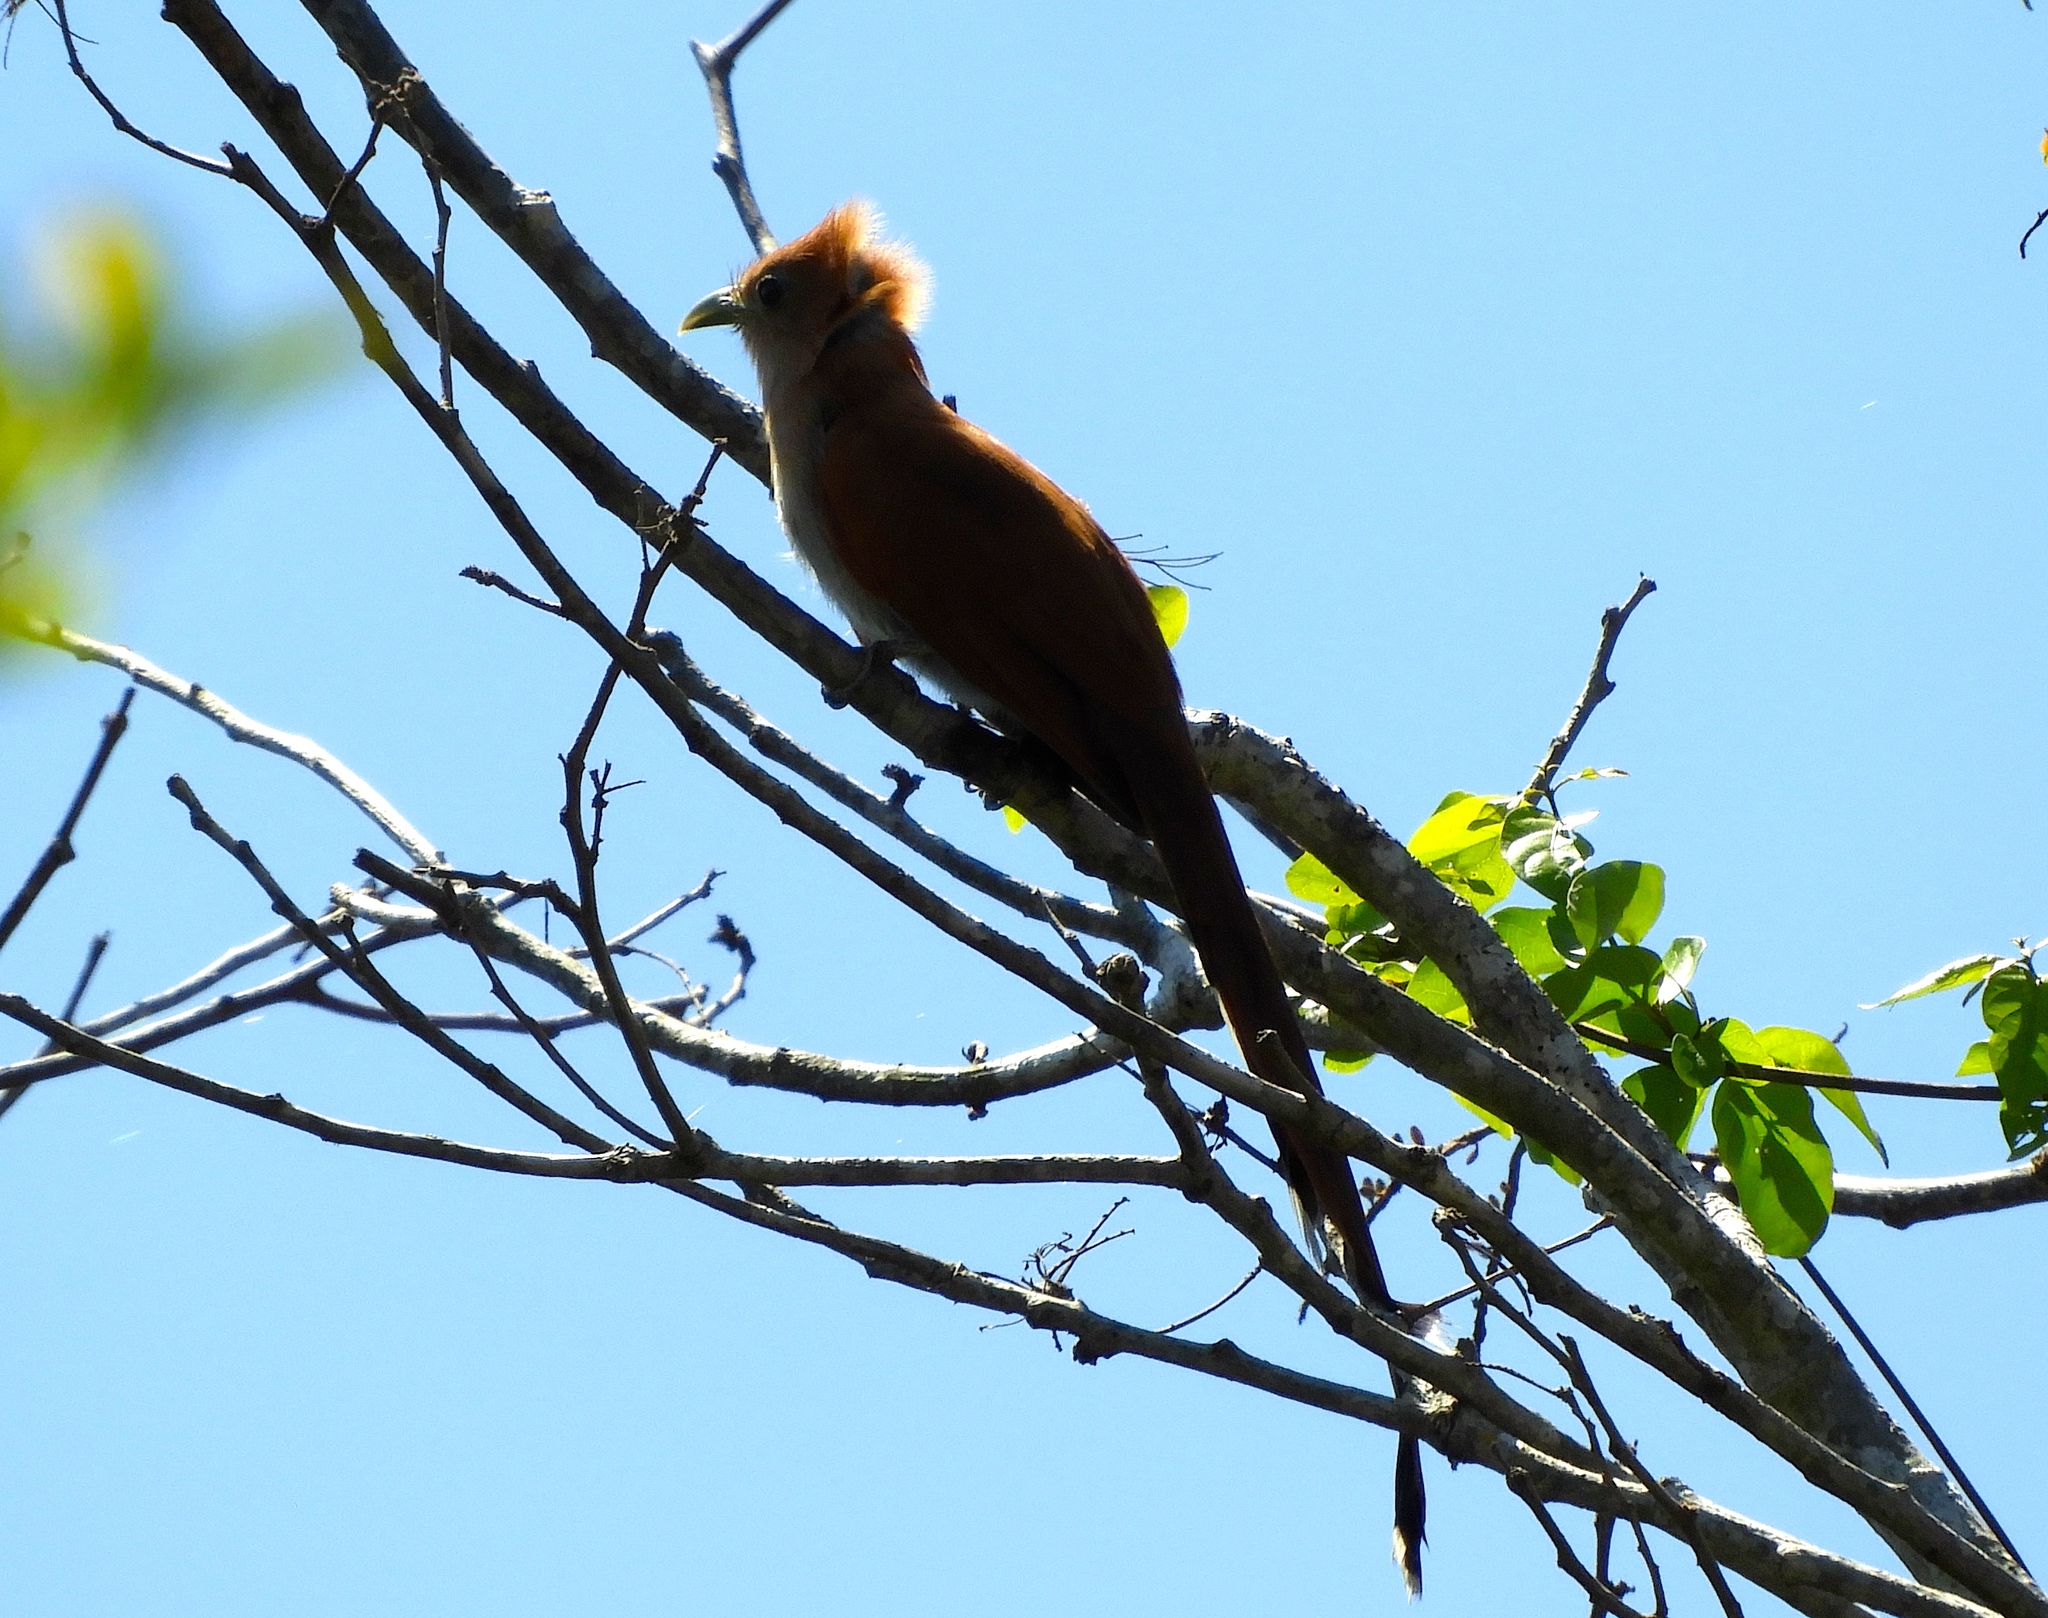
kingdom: Animalia
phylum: Chordata
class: Aves
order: Cuculiformes
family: Cuculidae
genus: Piaya
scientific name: Piaya cayana
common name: Squirrel cuckoo
